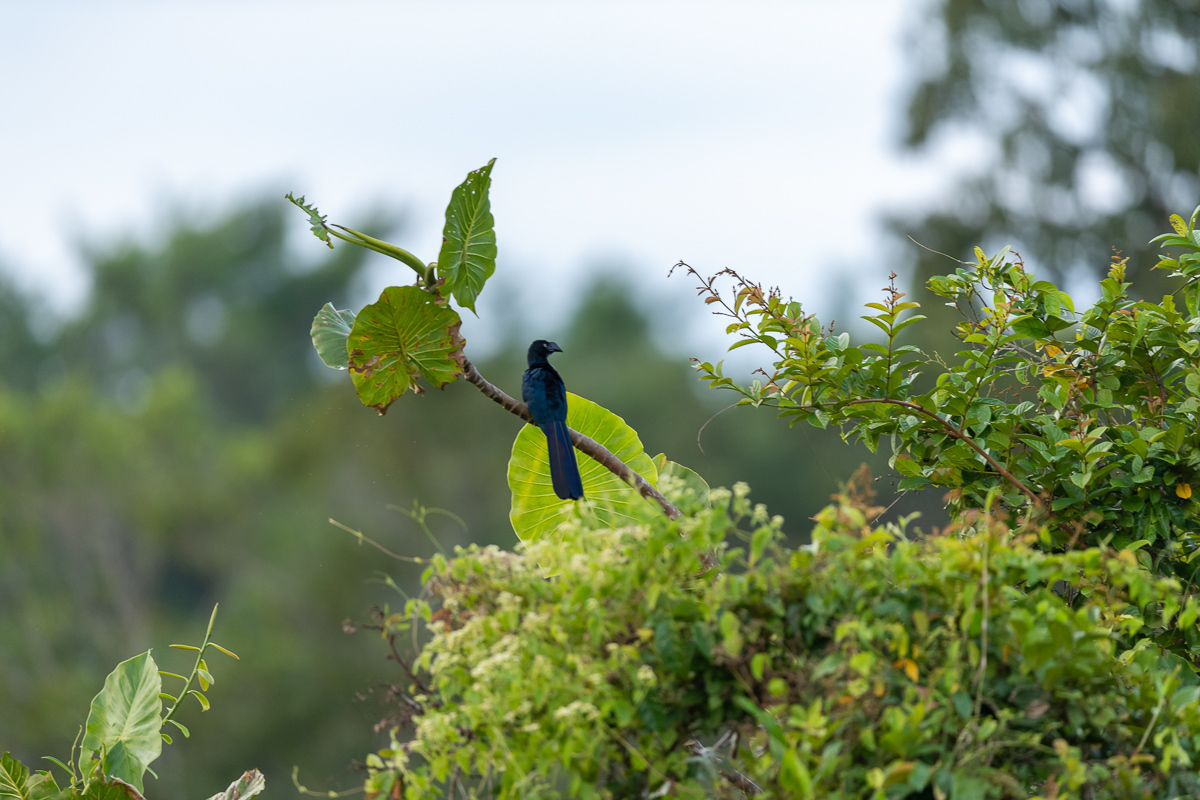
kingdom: Animalia
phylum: Chordata
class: Aves
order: Cuculiformes
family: Cuculidae
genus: Crotophaga
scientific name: Crotophaga major
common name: Greater ani
